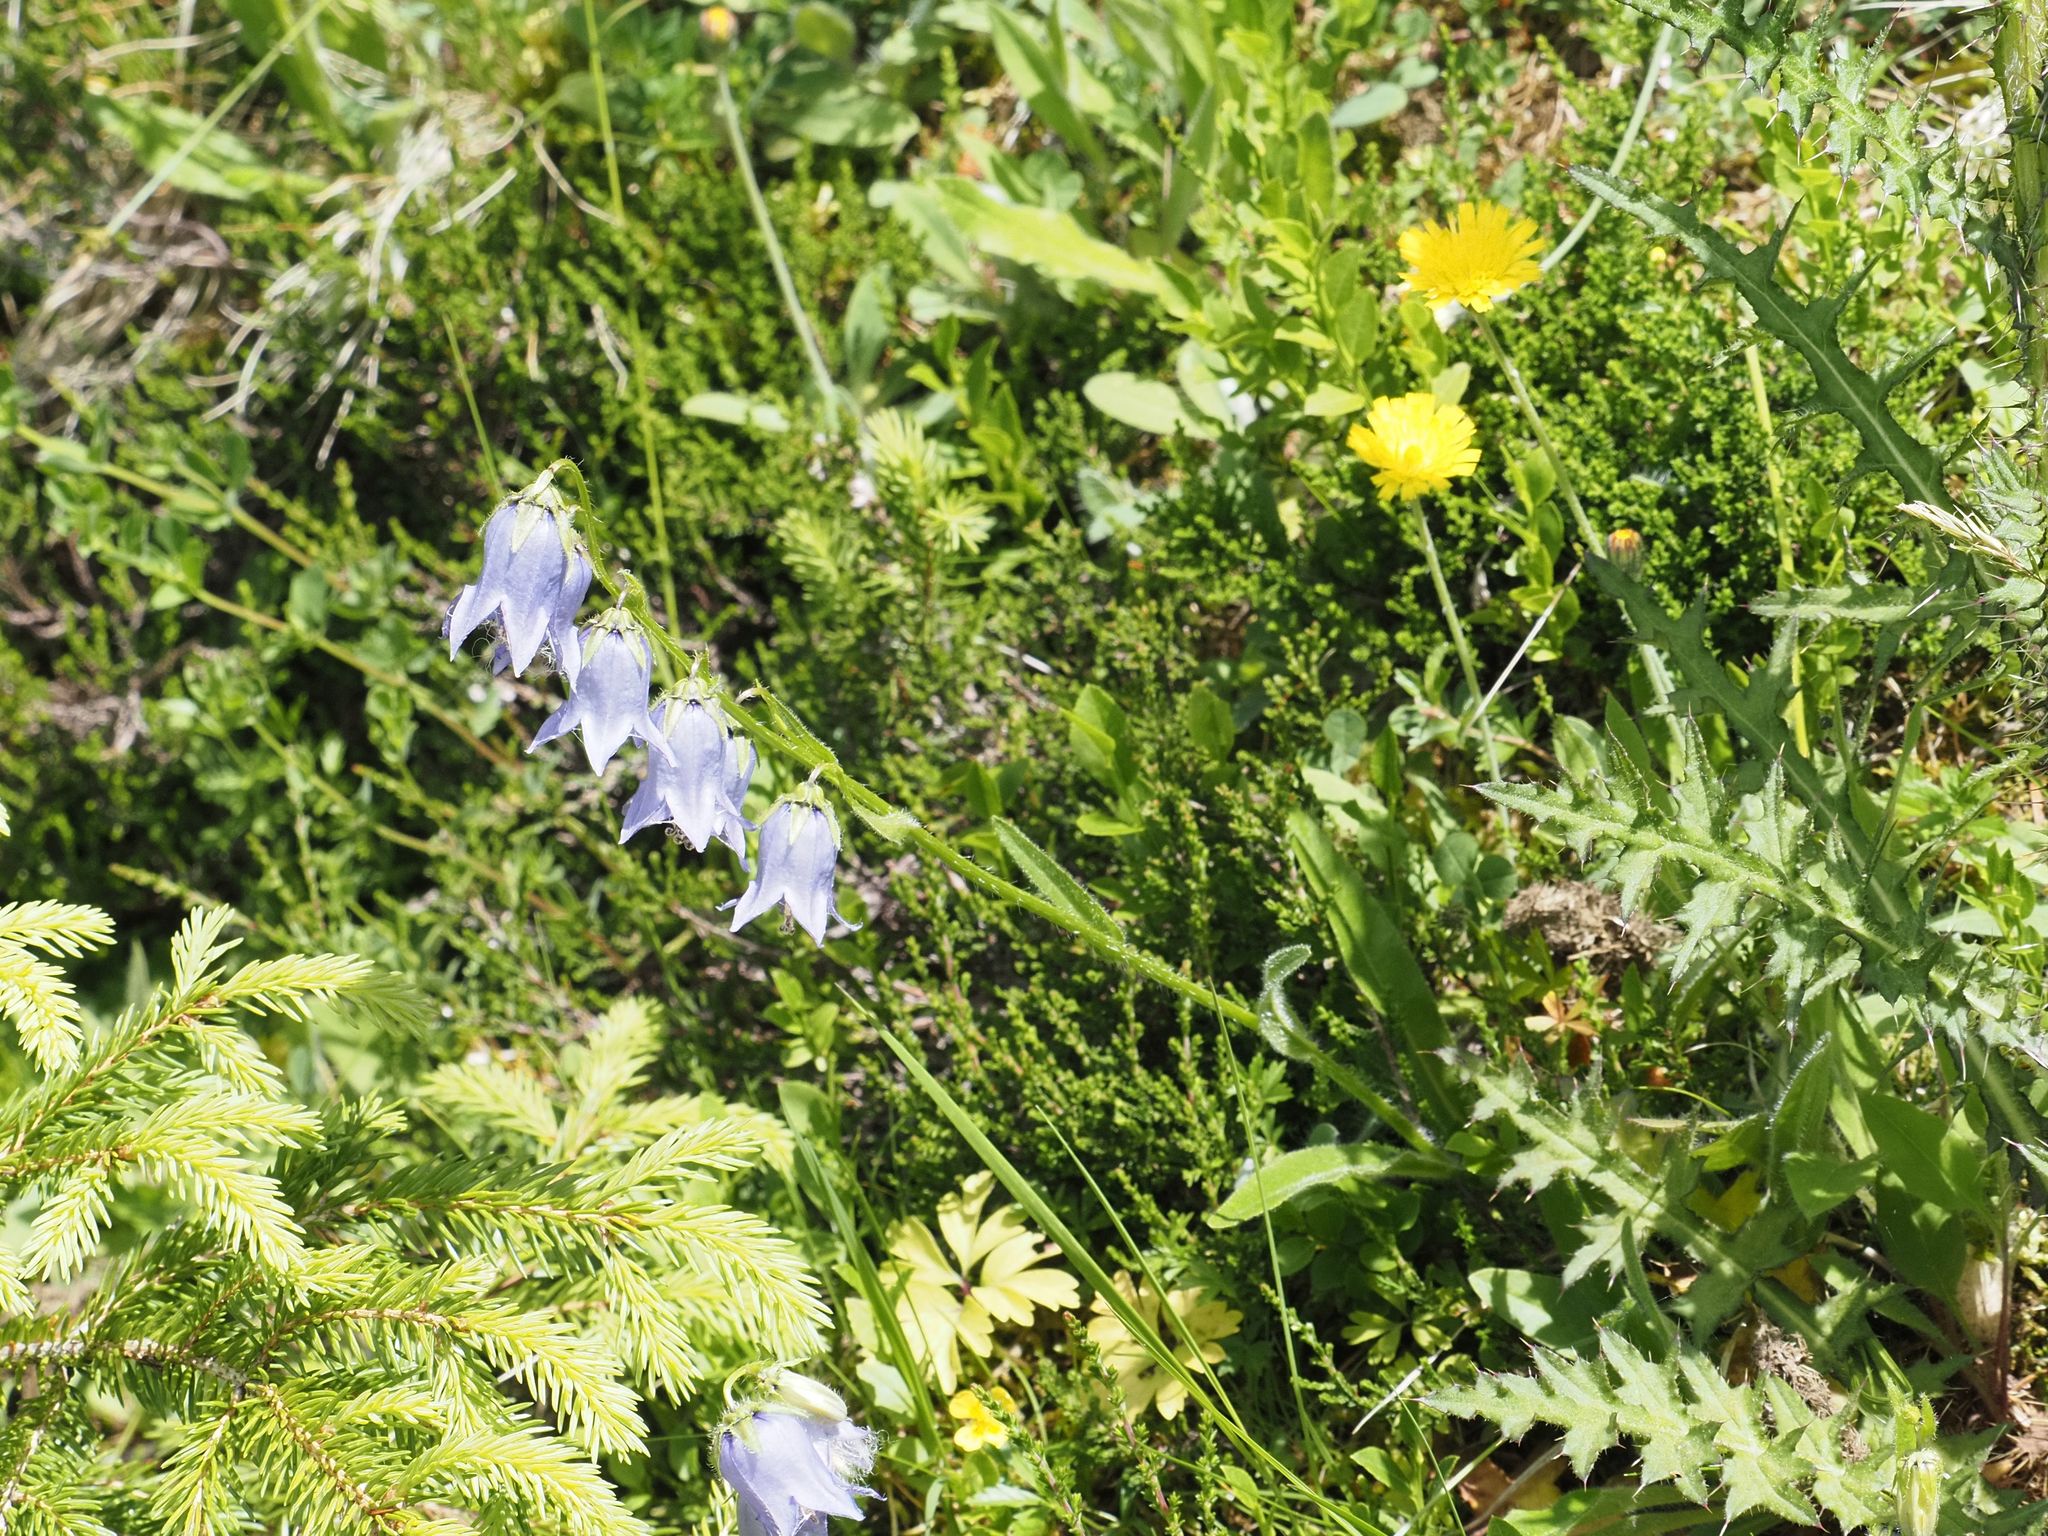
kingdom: Plantae
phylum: Tracheophyta
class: Magnoliopsida
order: Asterales
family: Campanulaceae
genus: Campanula
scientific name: Campanula barbata
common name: Bearded bellflower
